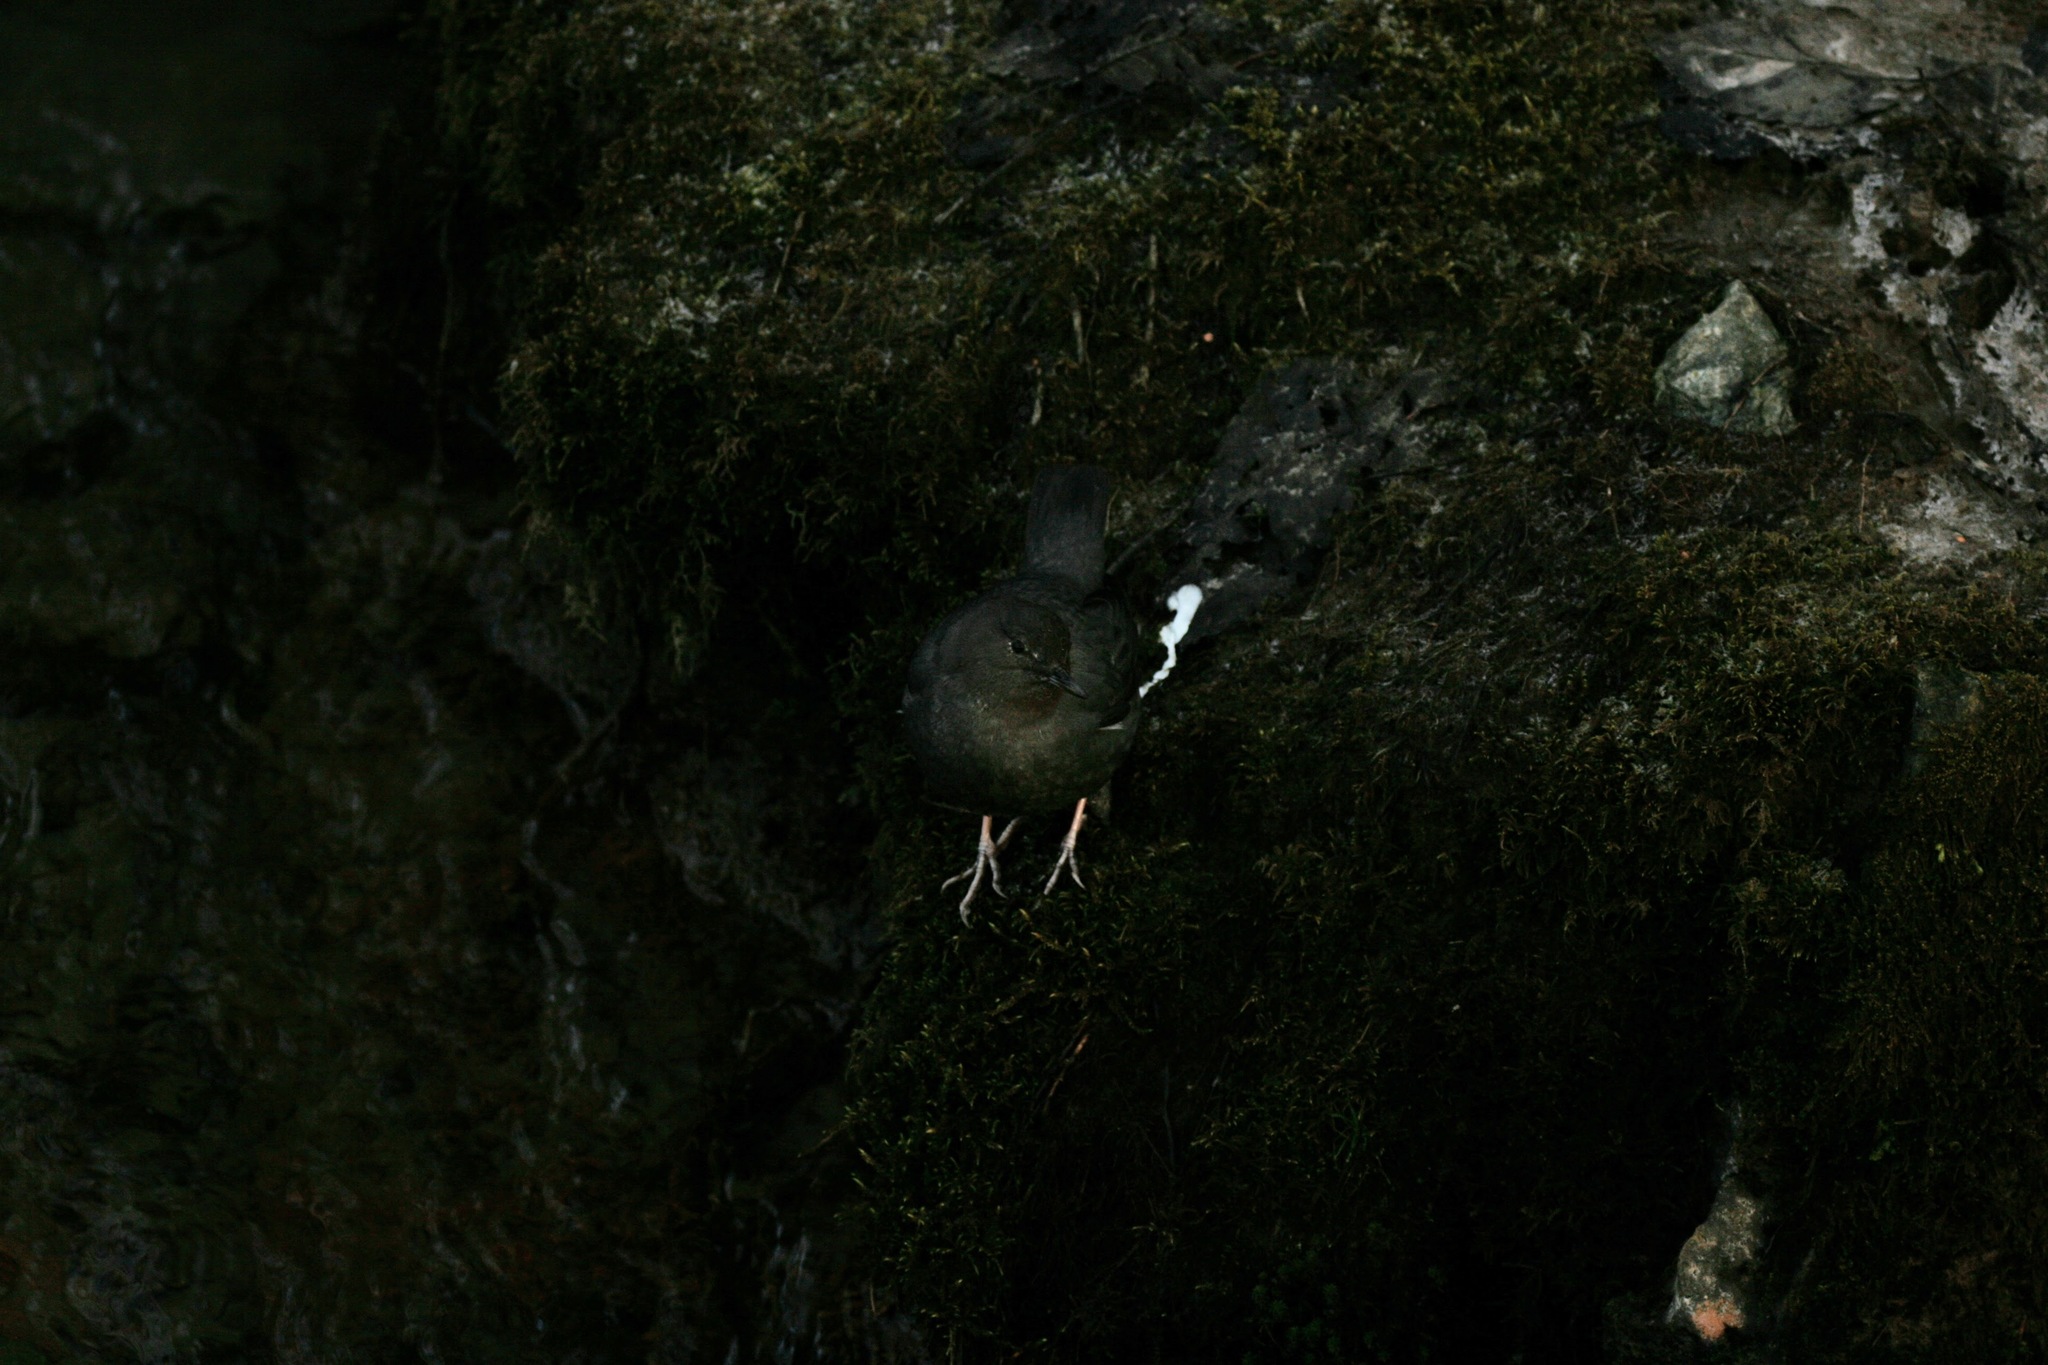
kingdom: Animalia
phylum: Chordata
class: Aves
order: Passeriformes
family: Cinclidae
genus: Cinclus
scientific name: Cinclus mexicanus
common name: American dipper
